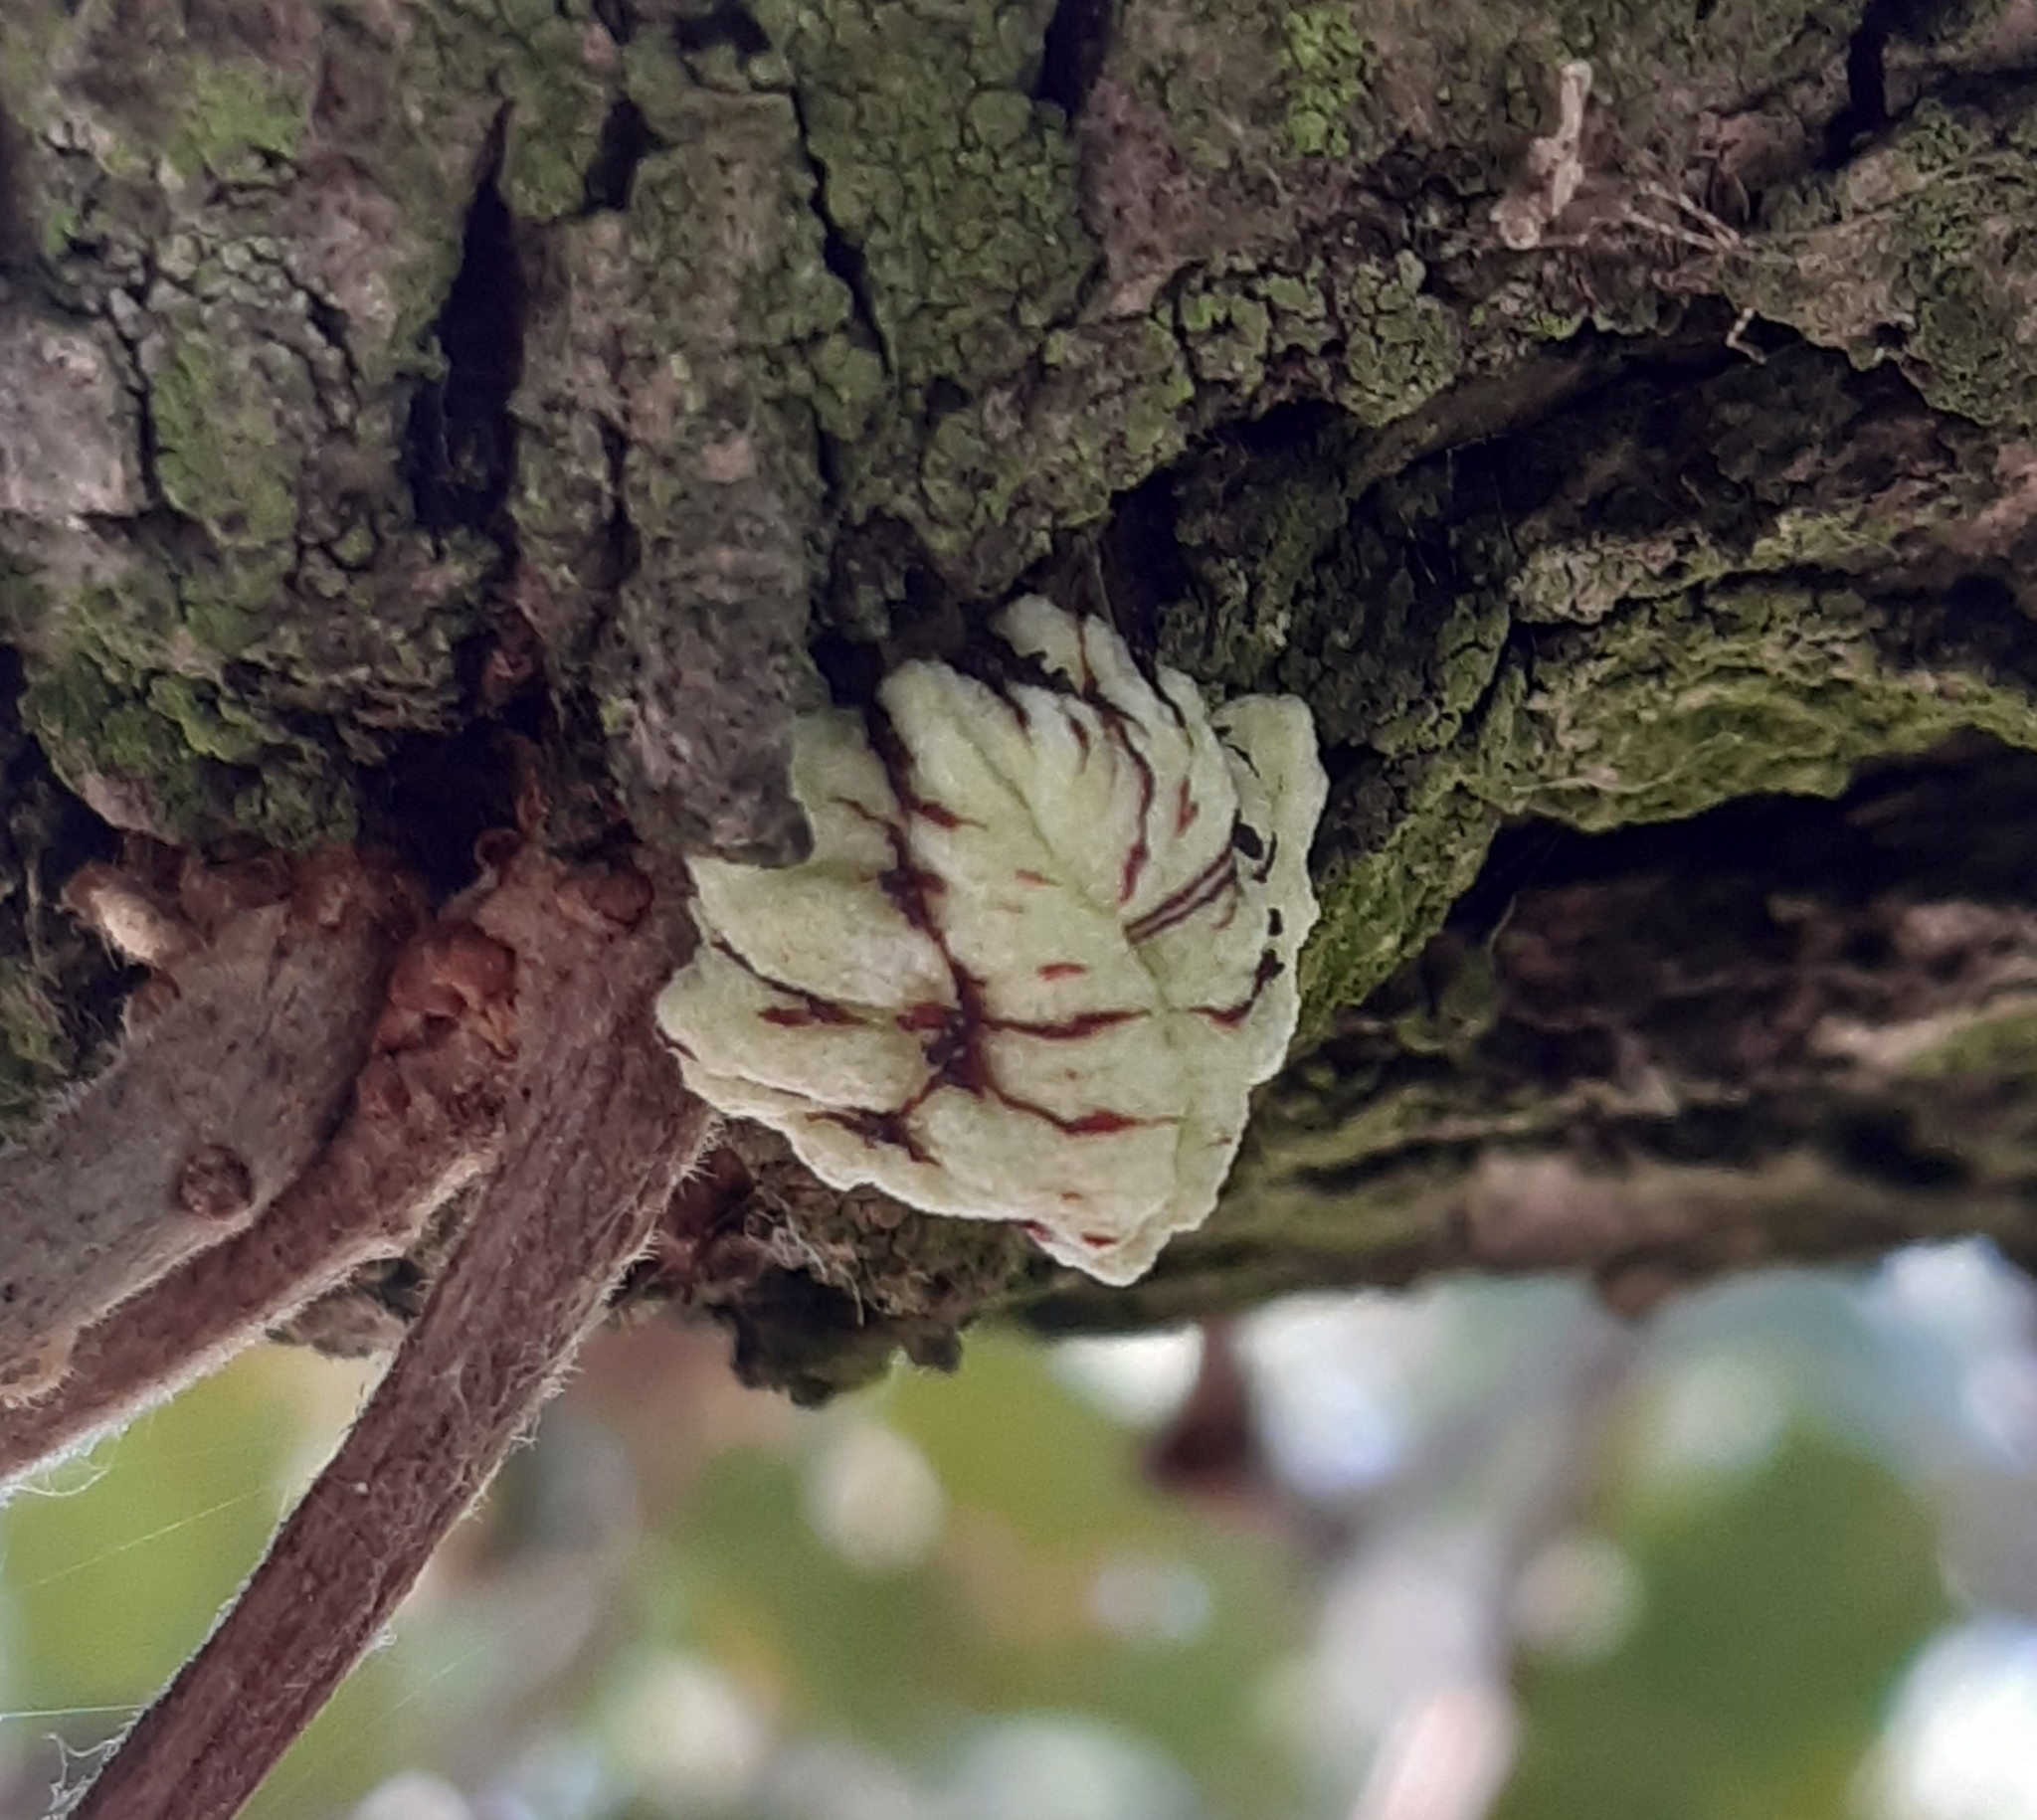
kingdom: Animalia
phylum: Arthropoda
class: Insecta
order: Hymenoptera
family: Cynipidae
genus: Andricus
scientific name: Andricus conificus
